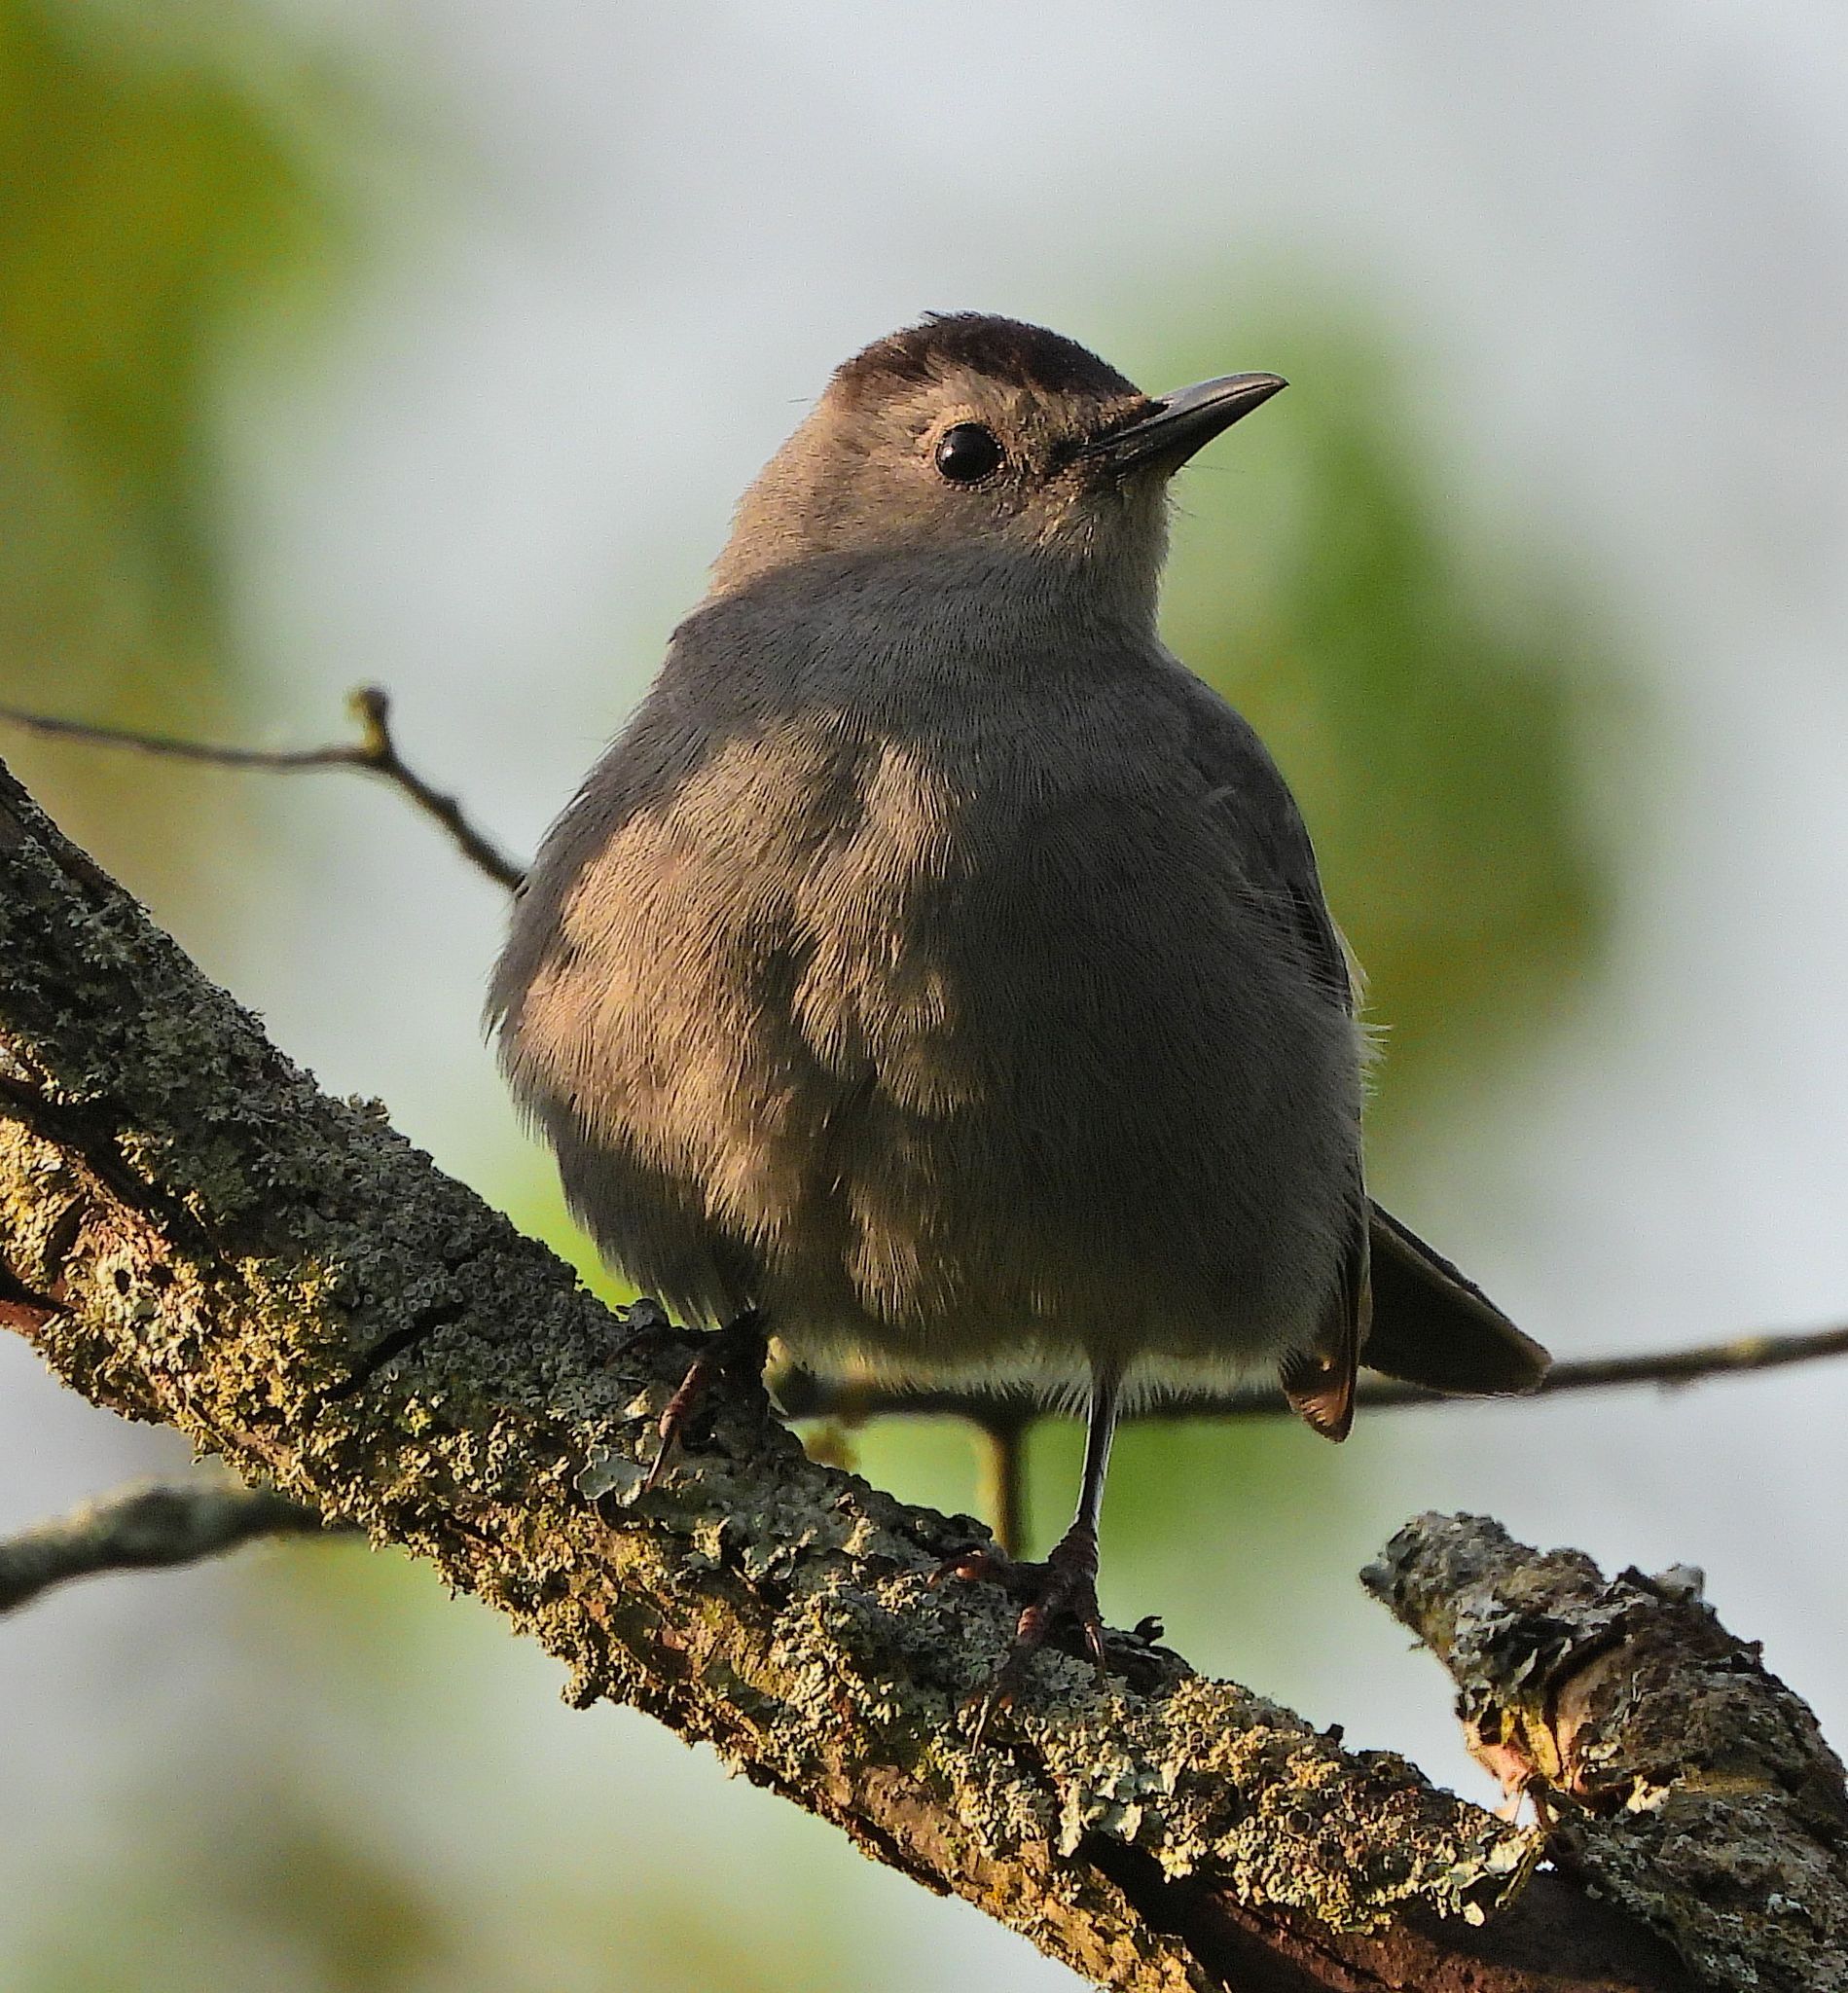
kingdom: Animalia
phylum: Chordata
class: Aves
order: Passeriformes
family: Mimidae
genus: Dumetella
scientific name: Dumetella carolinensis
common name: Gray catbird
